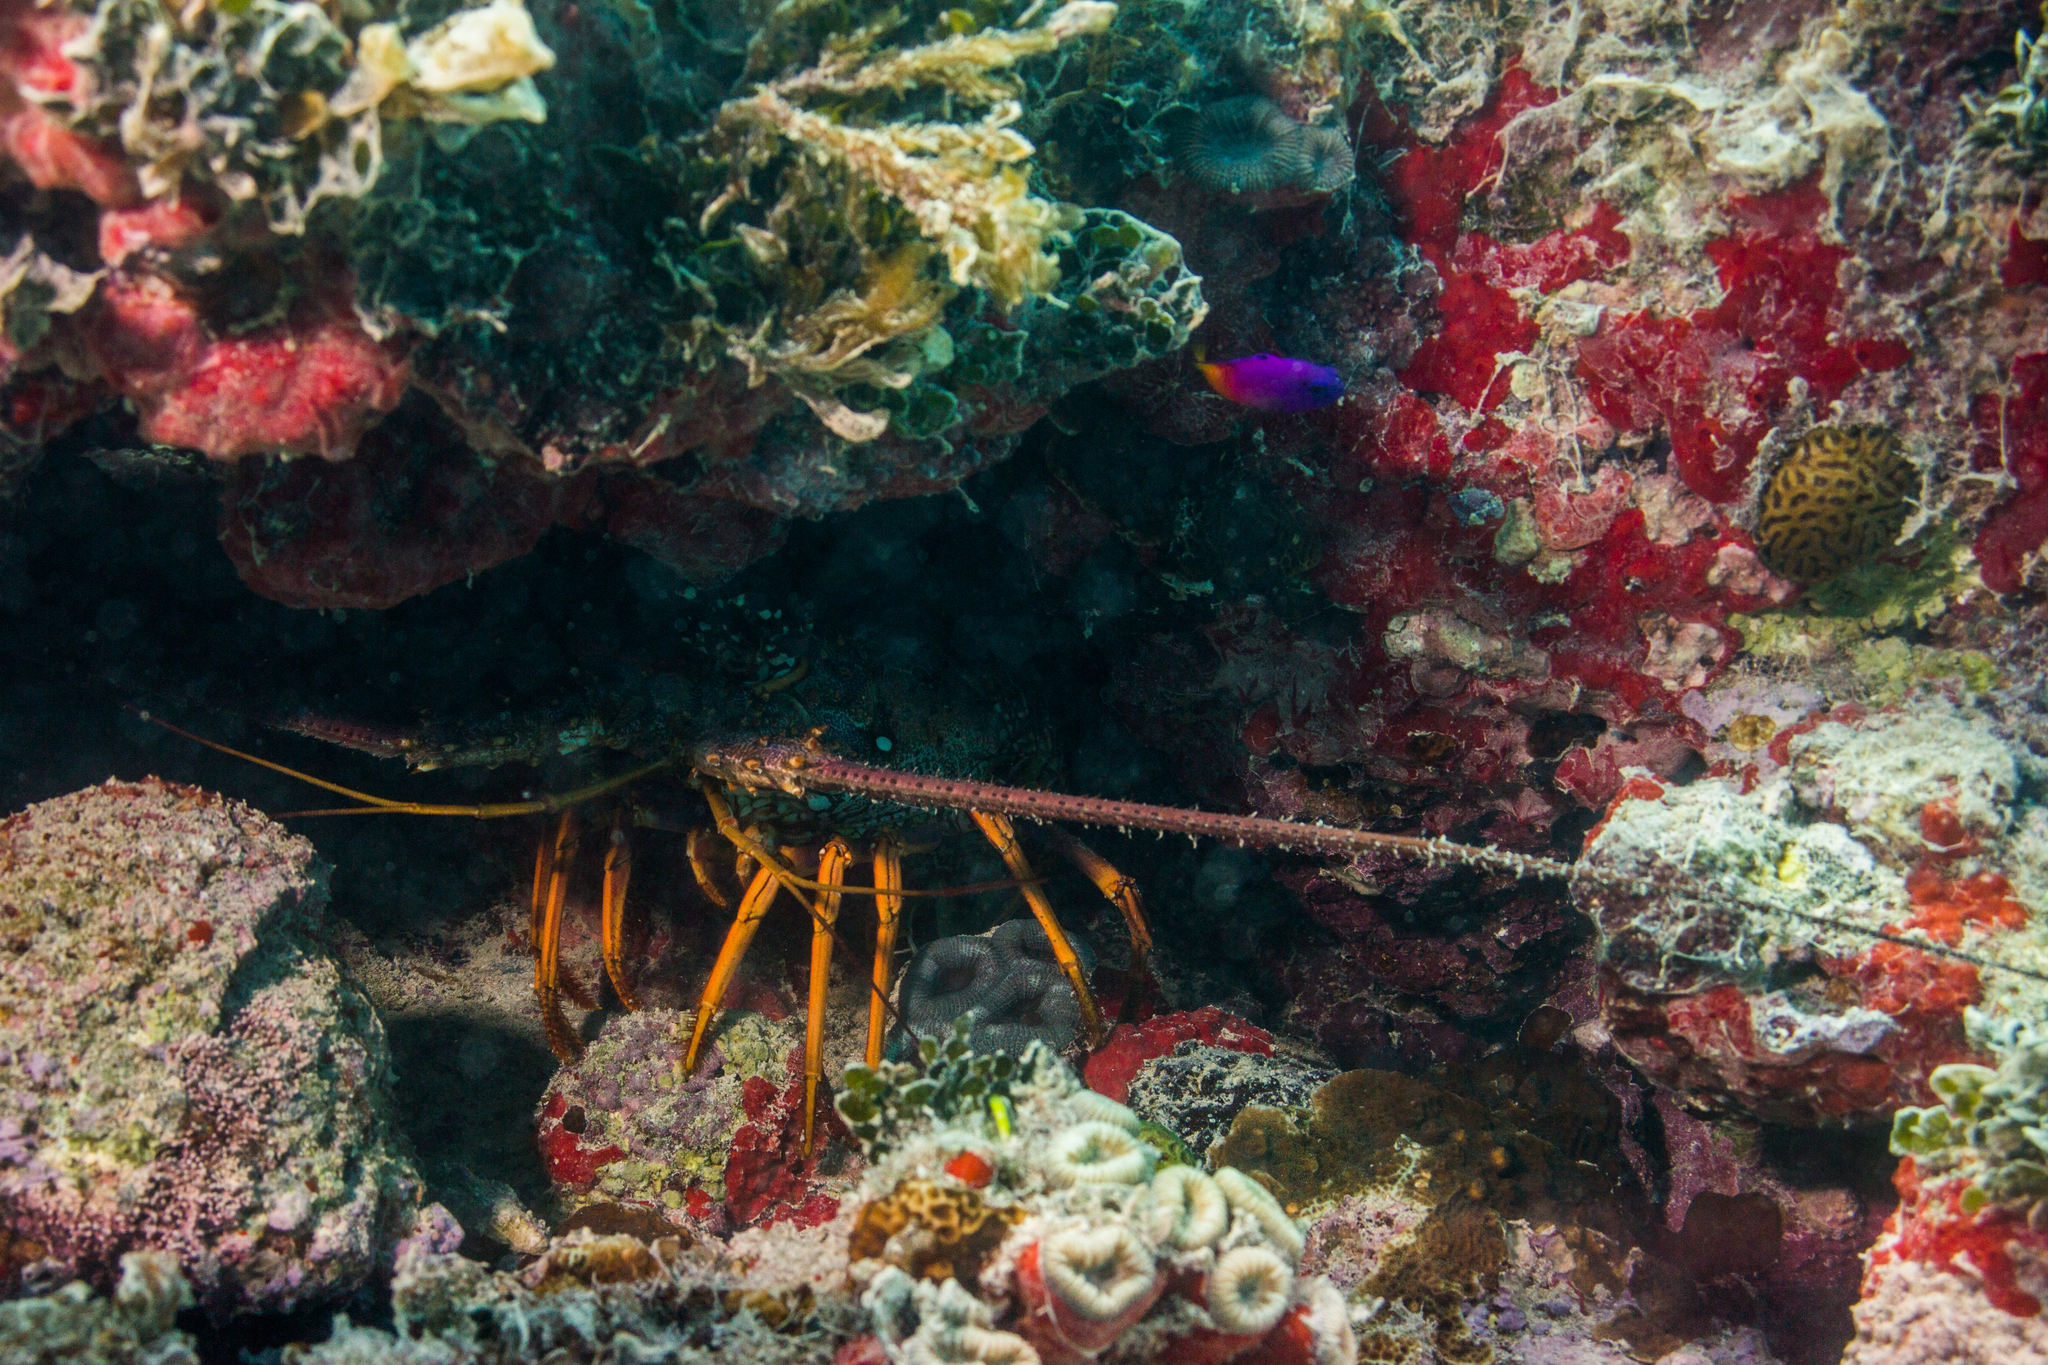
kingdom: Animalia
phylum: Arthropoda
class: Malacostraca
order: Decapoda
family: Palinuridae
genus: Panulirus
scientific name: Panulirus meripurpuratus
